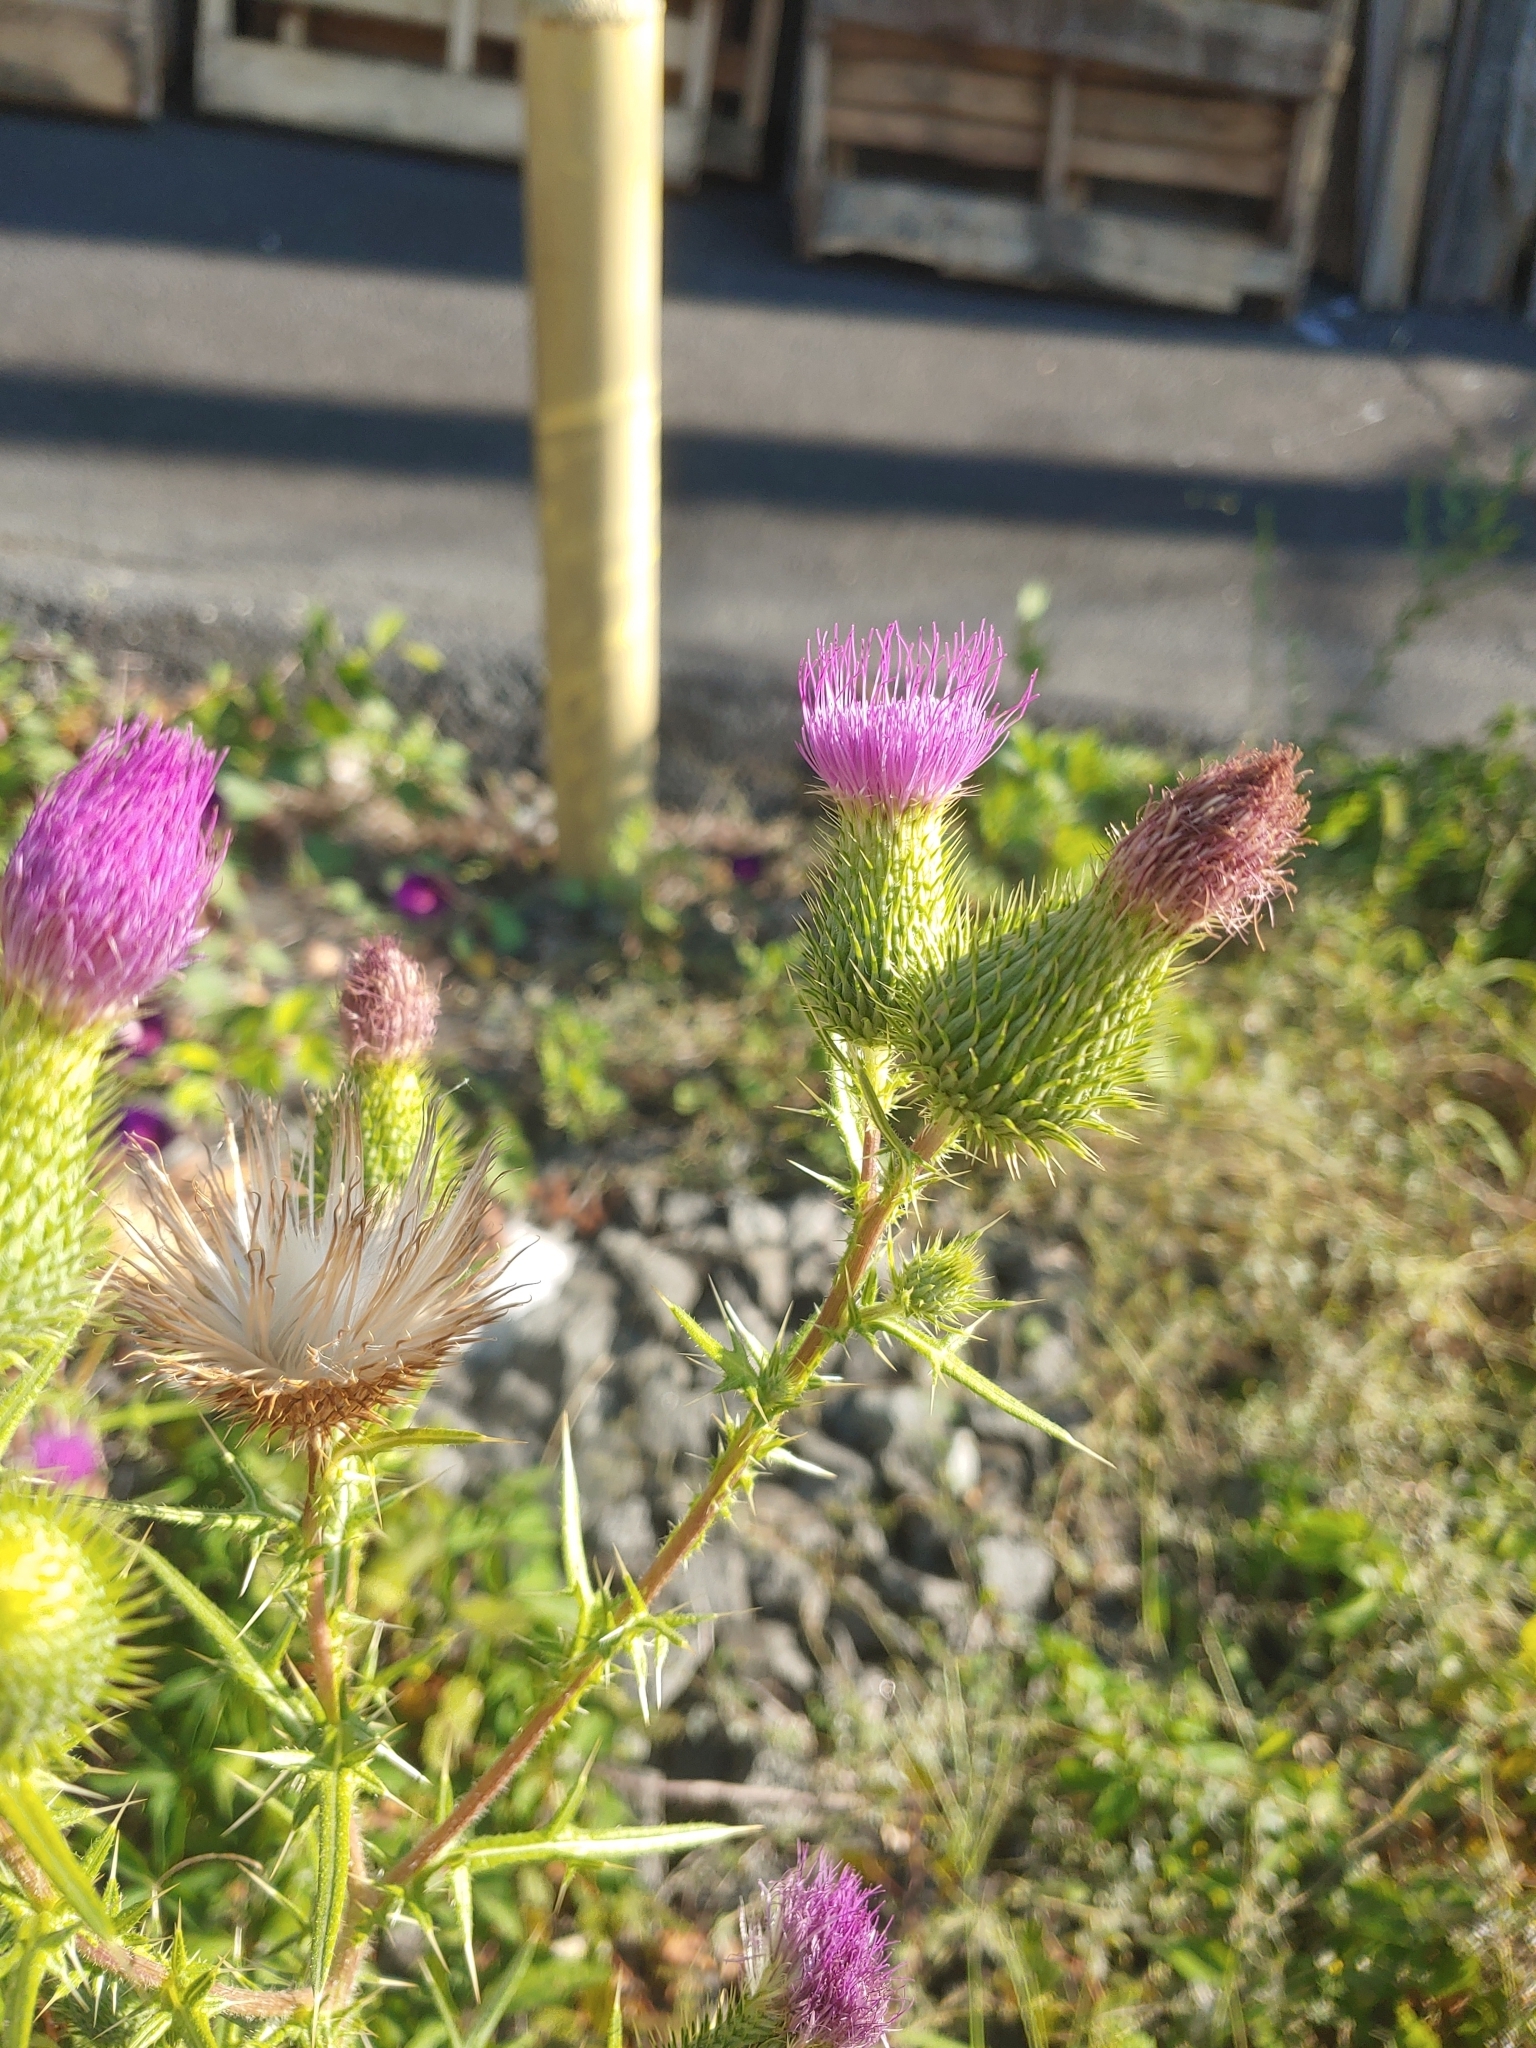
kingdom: Plantae
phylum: Tracheophyta
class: Magnoliopsida
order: Asterales
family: Asteraceae
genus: Cirsium
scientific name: Cirsium vulgare
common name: Bull thistle
